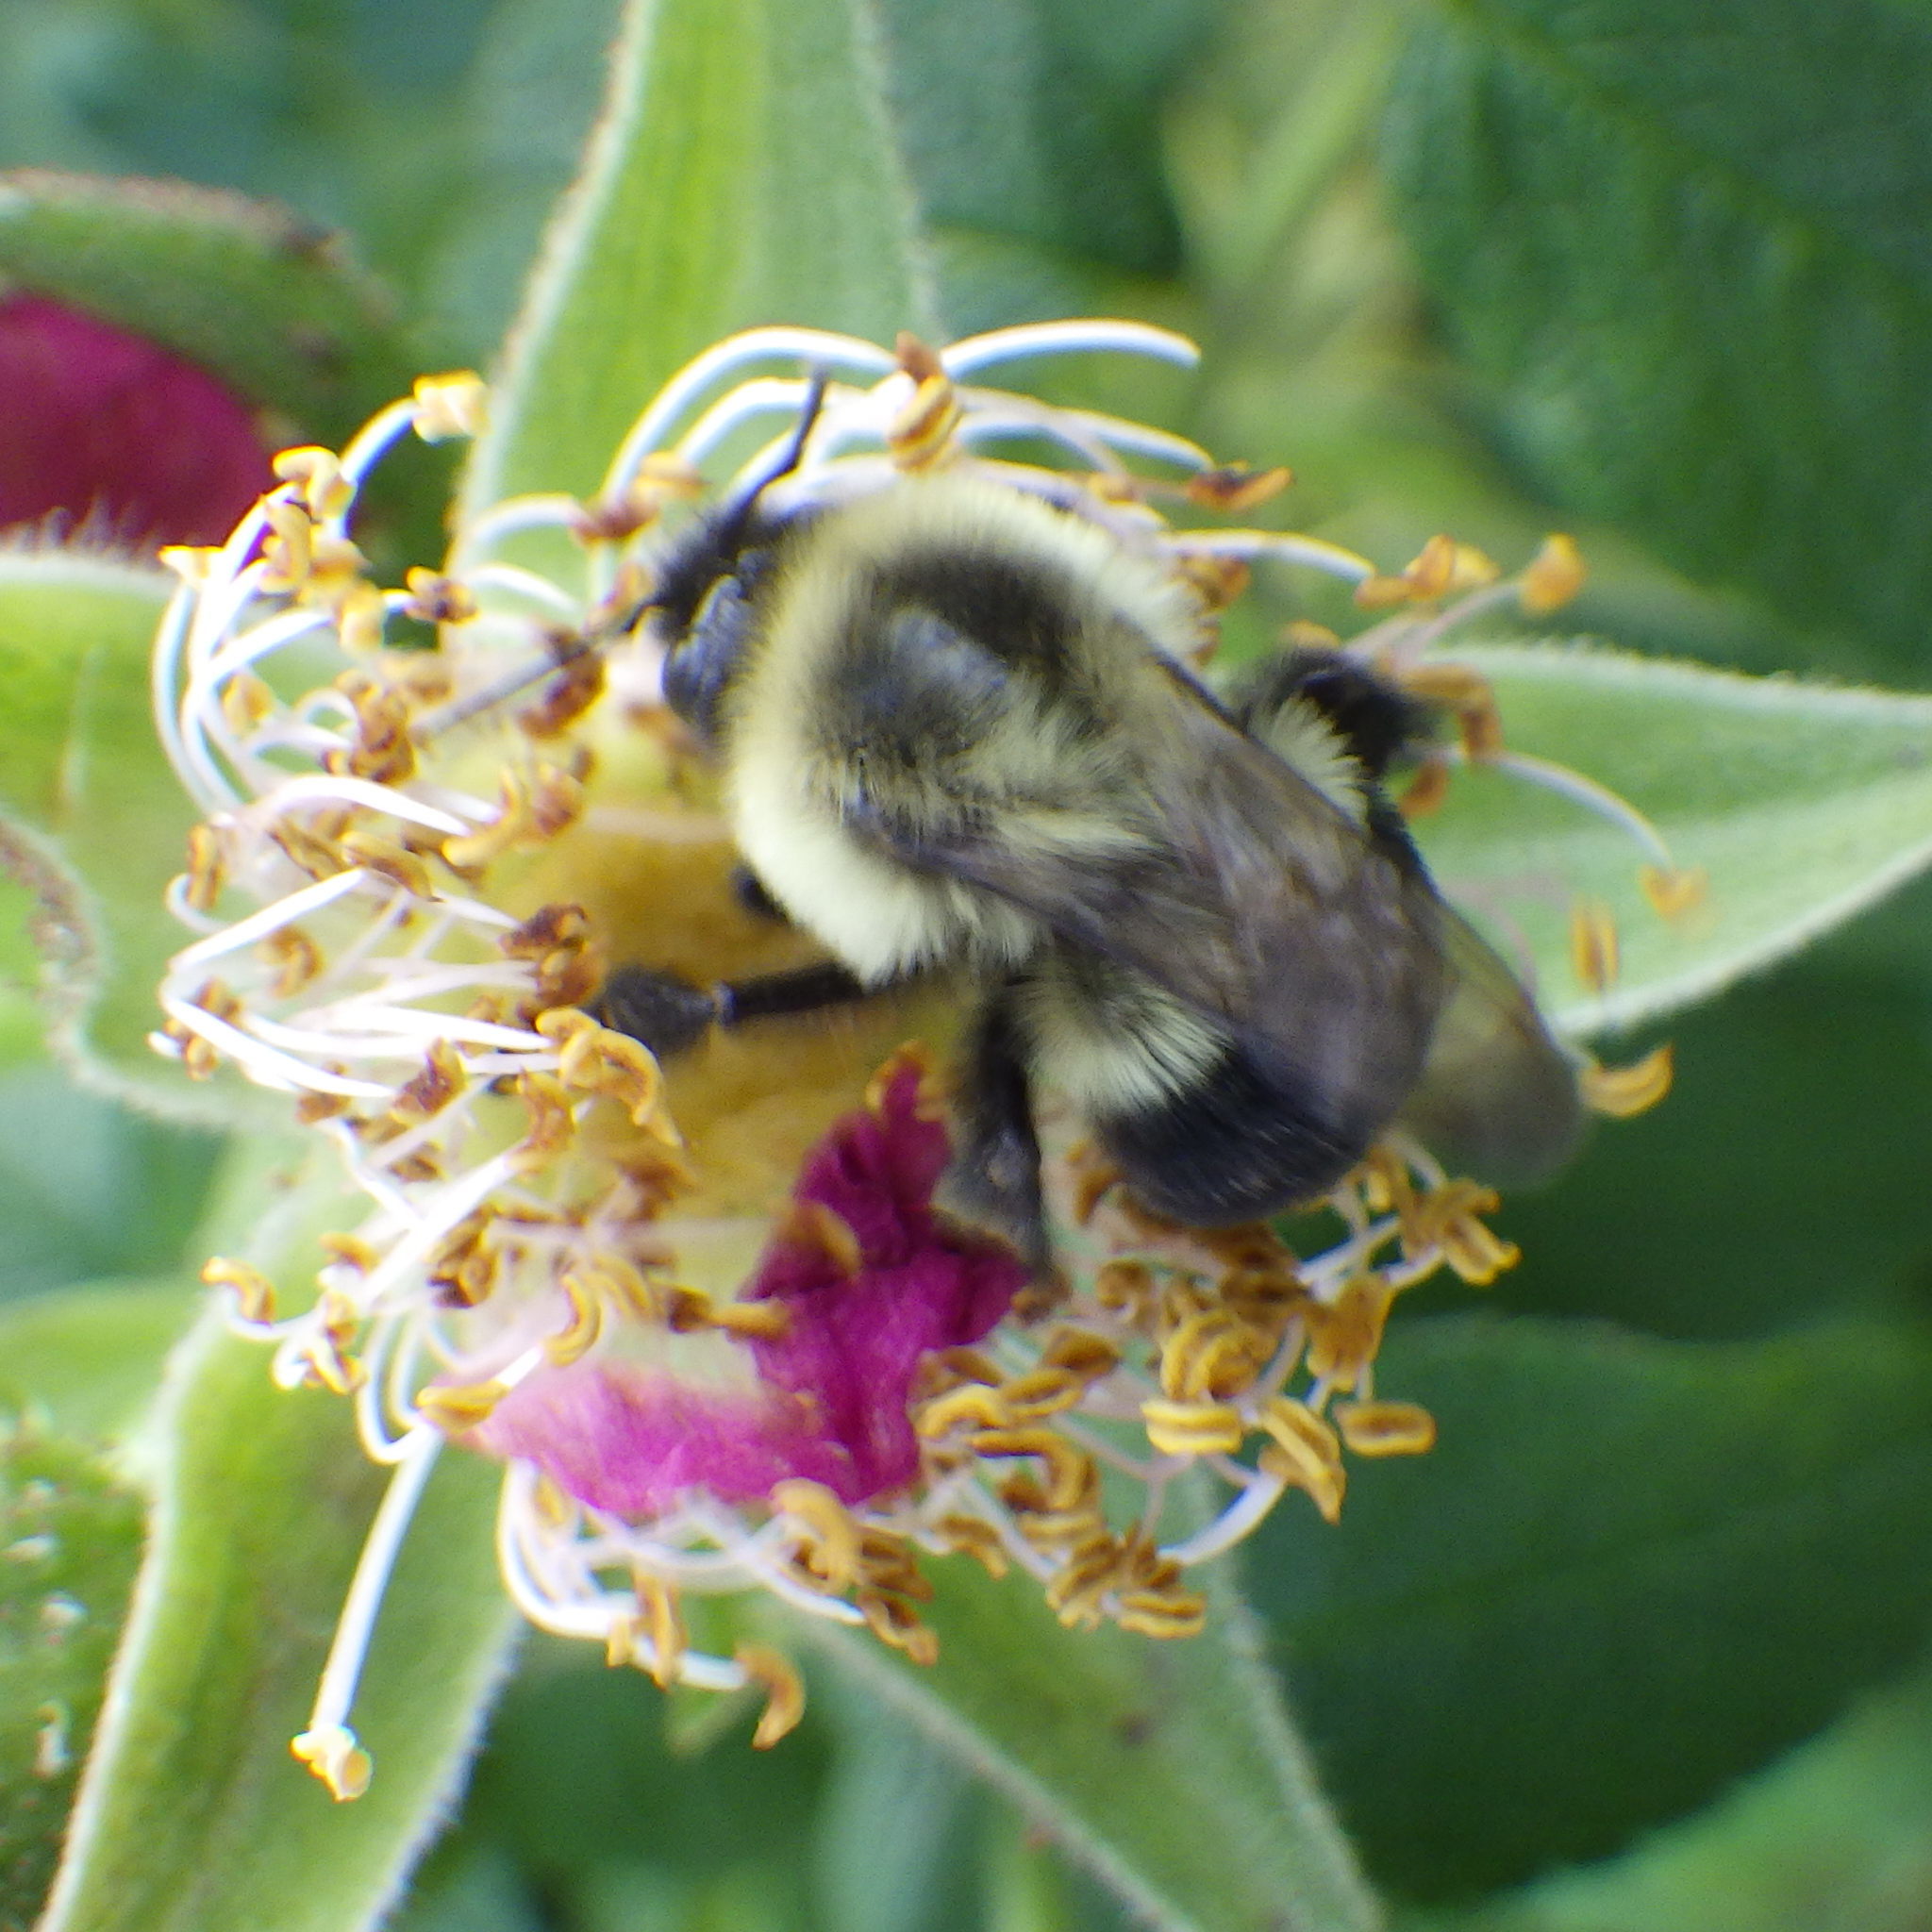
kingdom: Animalia
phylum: Arthropoda
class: Insecta
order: Hymenoptera
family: Apidae
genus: Bombus
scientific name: Bombus impatiens
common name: Common eastern bumble bee
